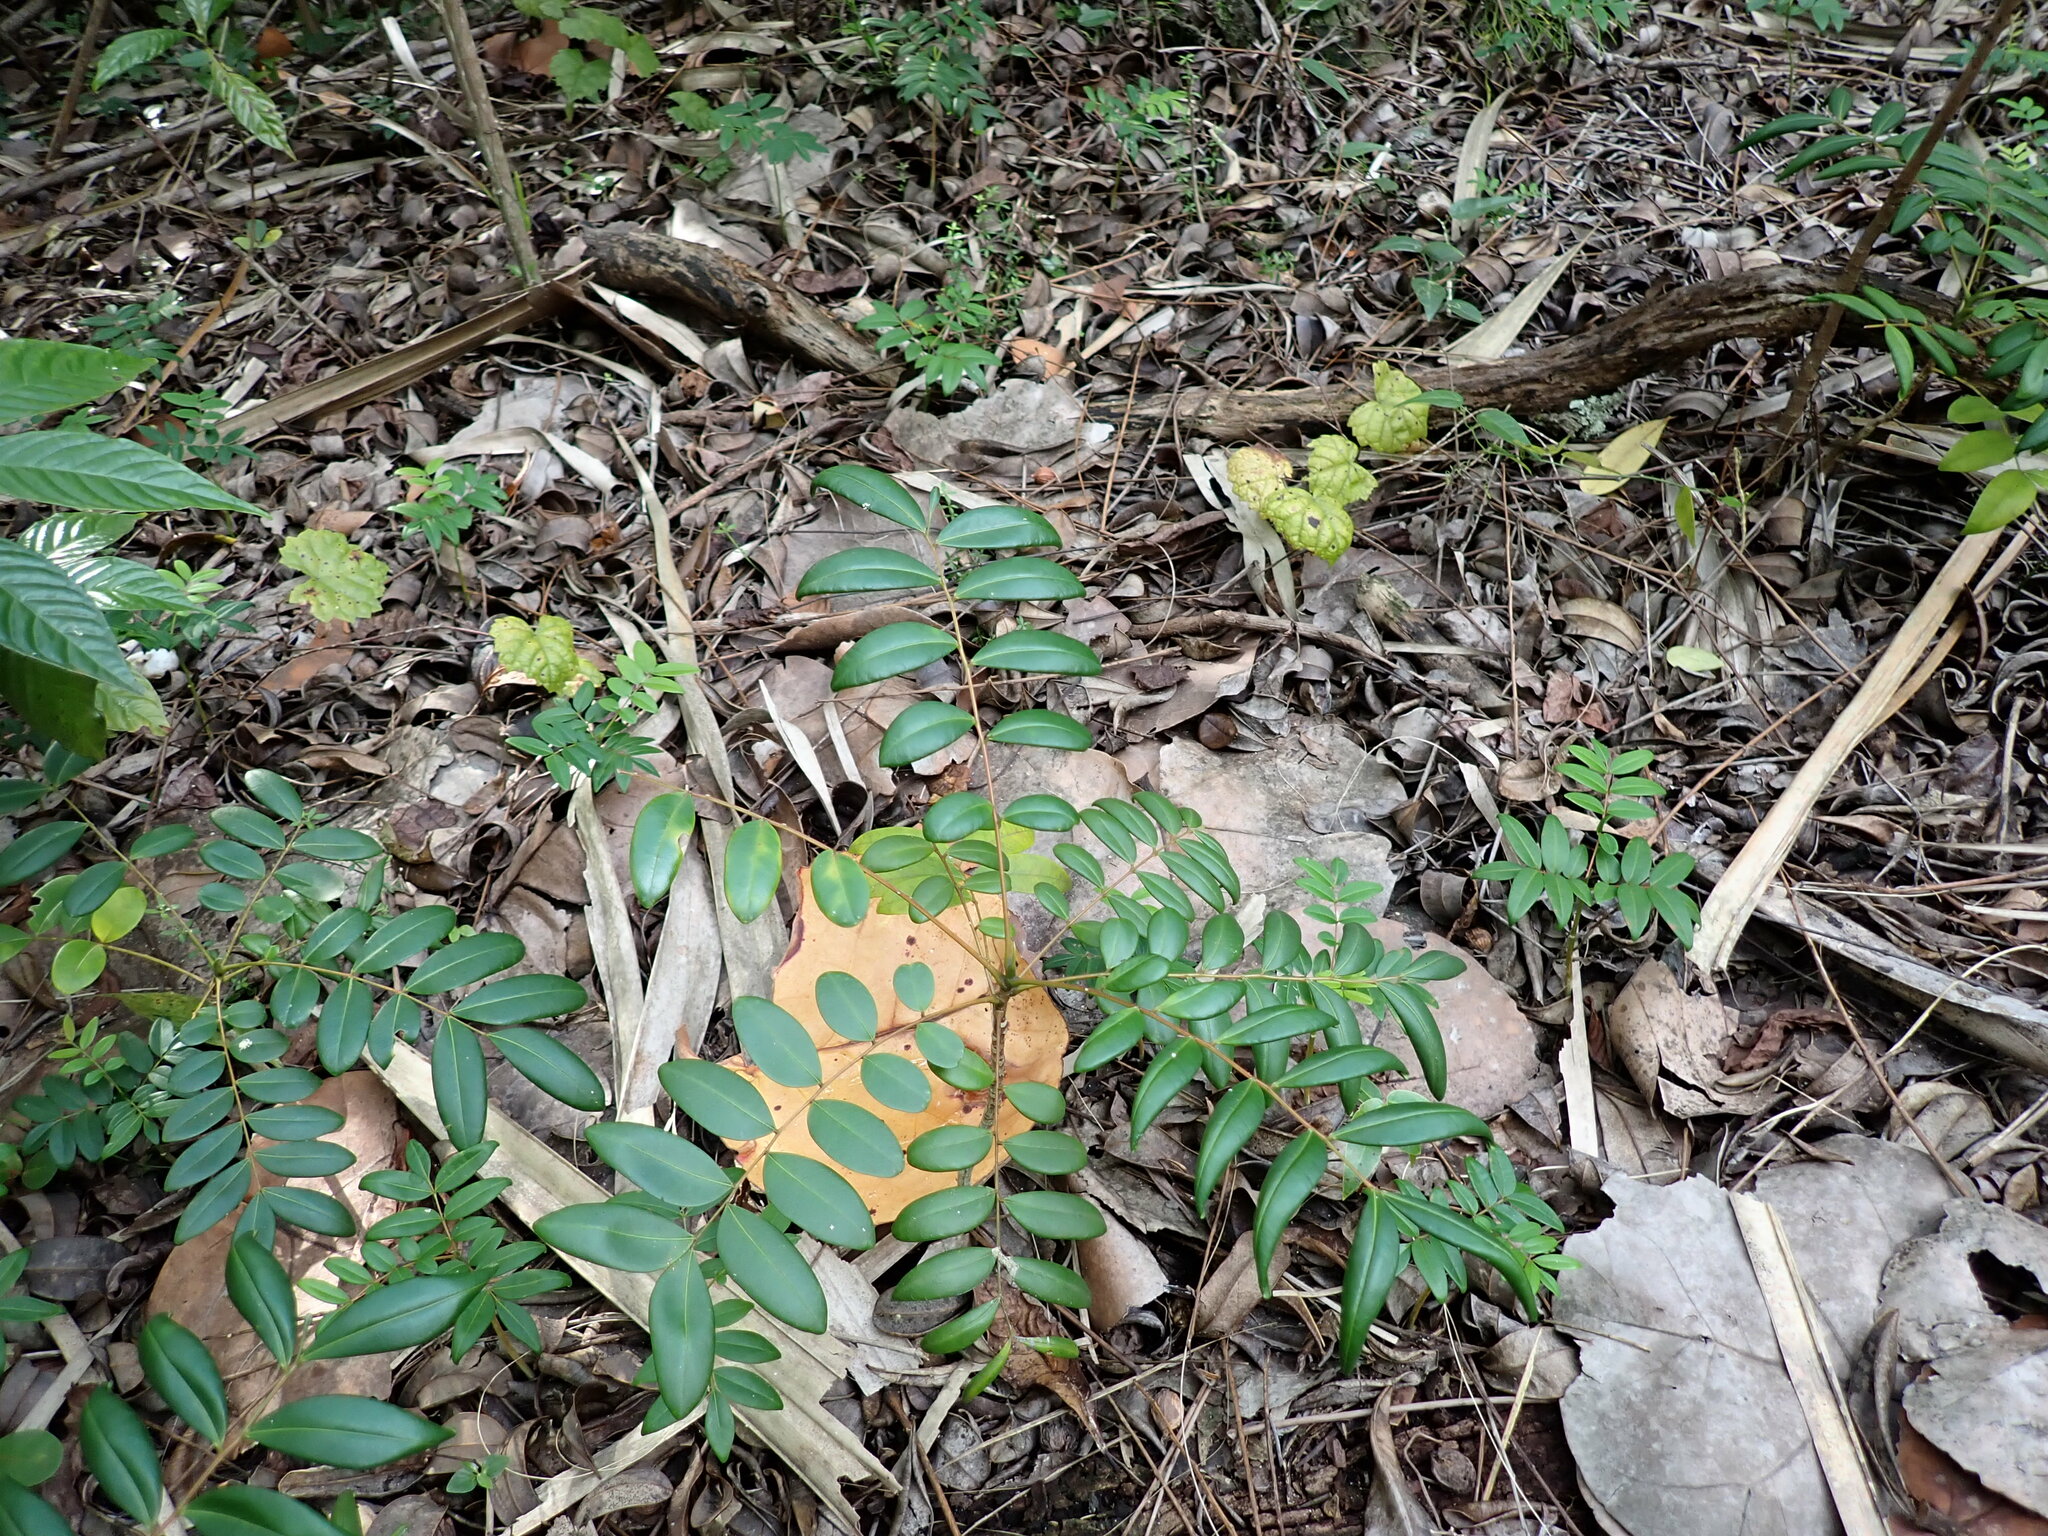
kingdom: Plantae
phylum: Tracheophyta
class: Magnoliopsida
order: Sapindales
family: Simaroubaceae
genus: Simarouba
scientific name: Simarouba glauca
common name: Dysentery-bark
